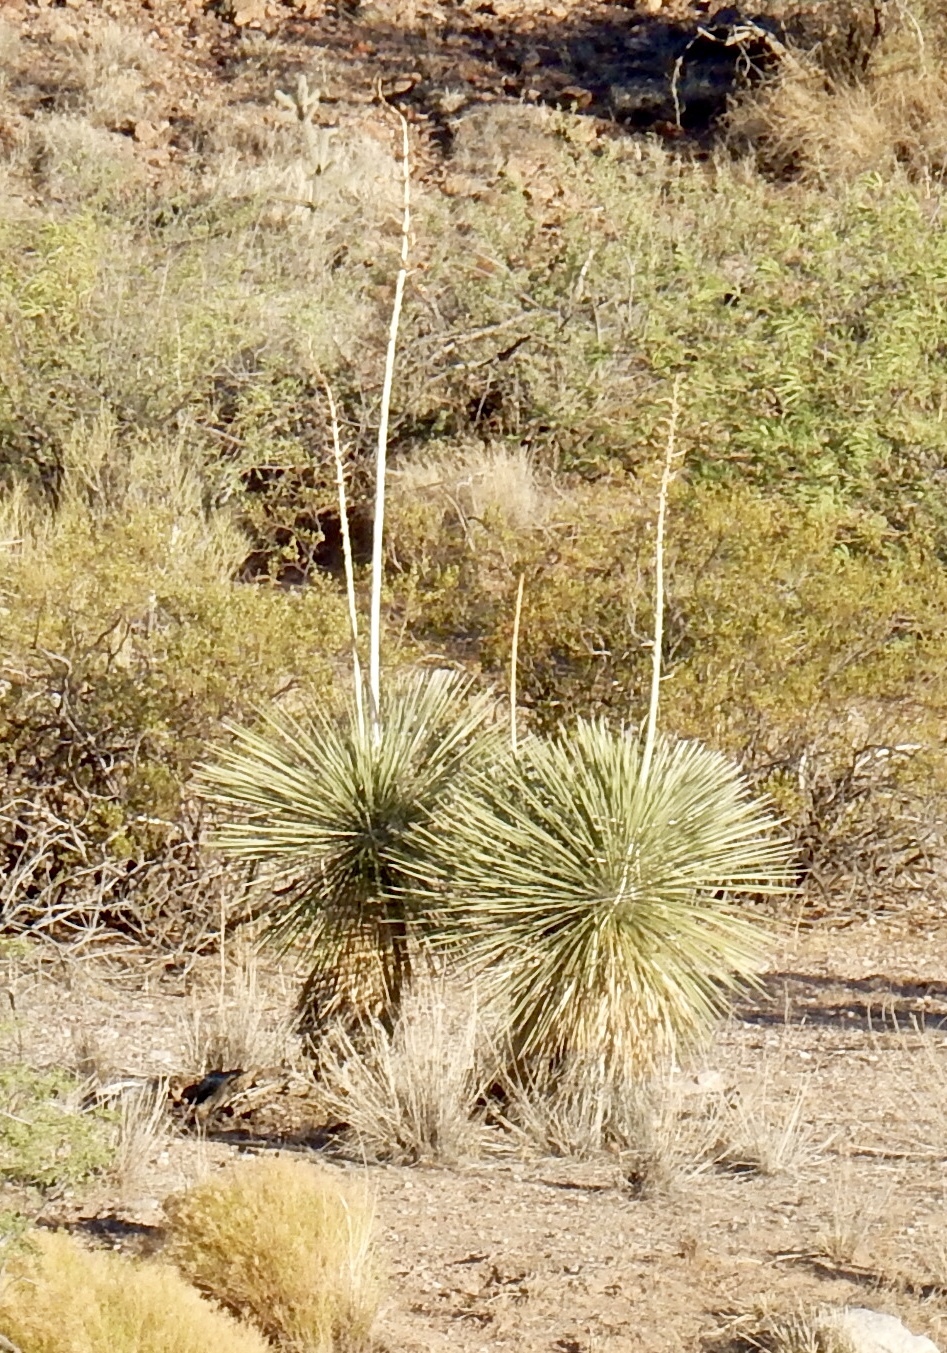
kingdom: Plantae
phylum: Tracheophyta
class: Liliopsida
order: Asparagales
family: Asparagaceae
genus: Yucca
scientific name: Yucca elata
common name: Palmella
